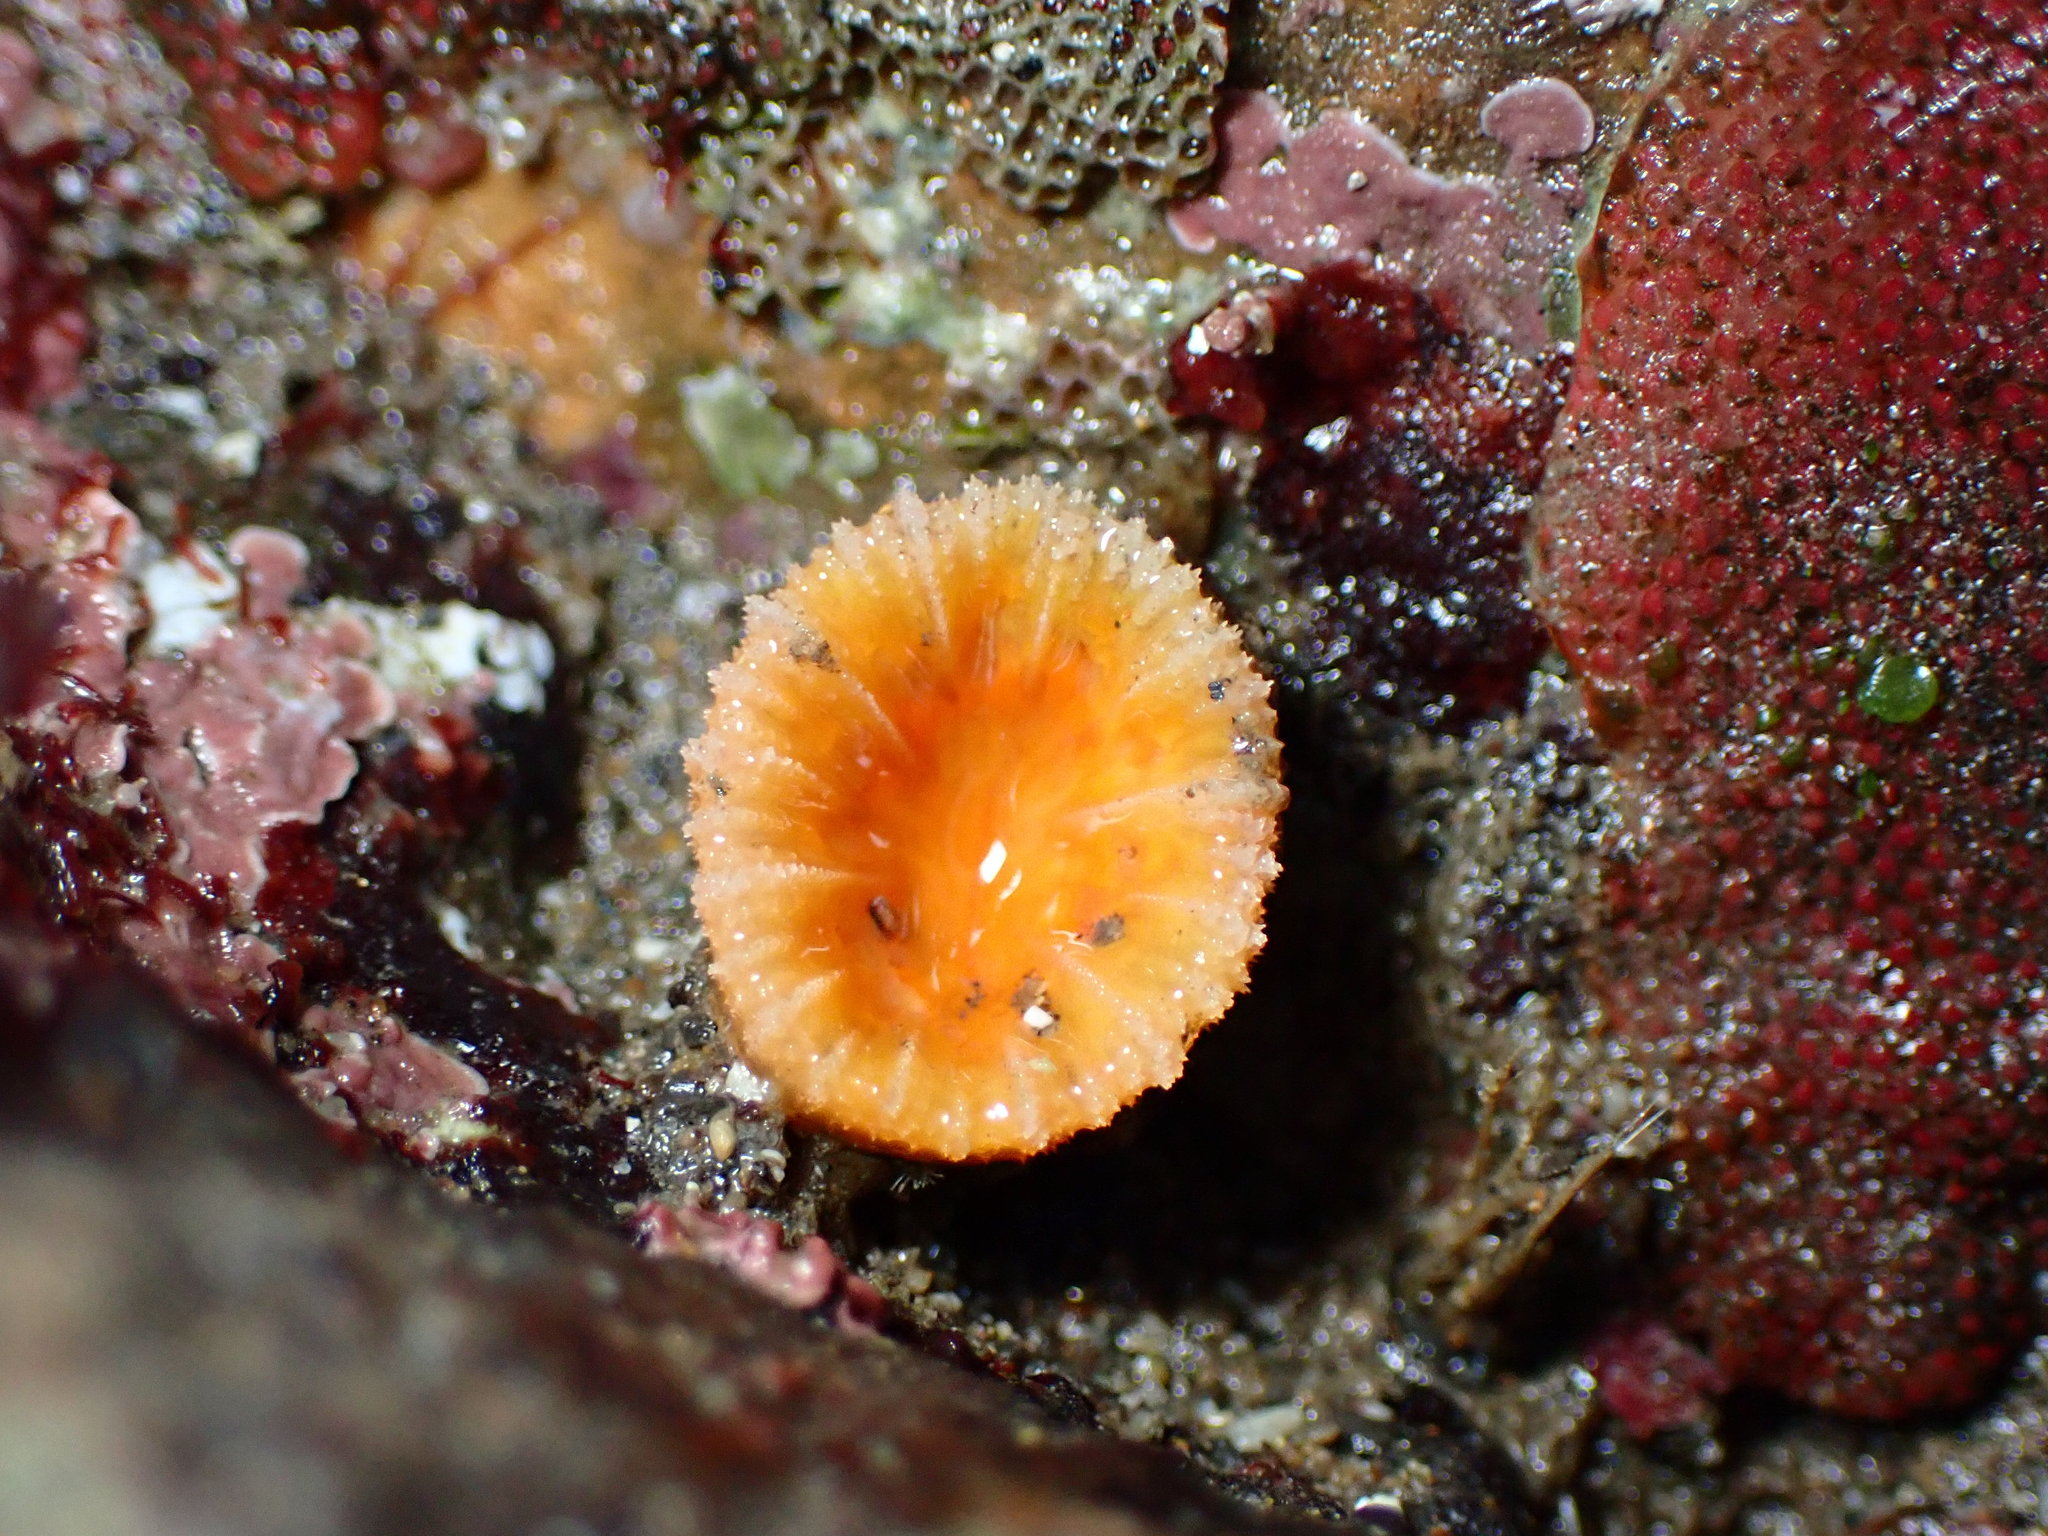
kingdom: Animalia
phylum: Cnidaria
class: Anthozoa
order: Scleractinia
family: Dendrophylliidae
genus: Balanophyllia
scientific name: Balanophyllia elegans
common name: Orange stony coral
